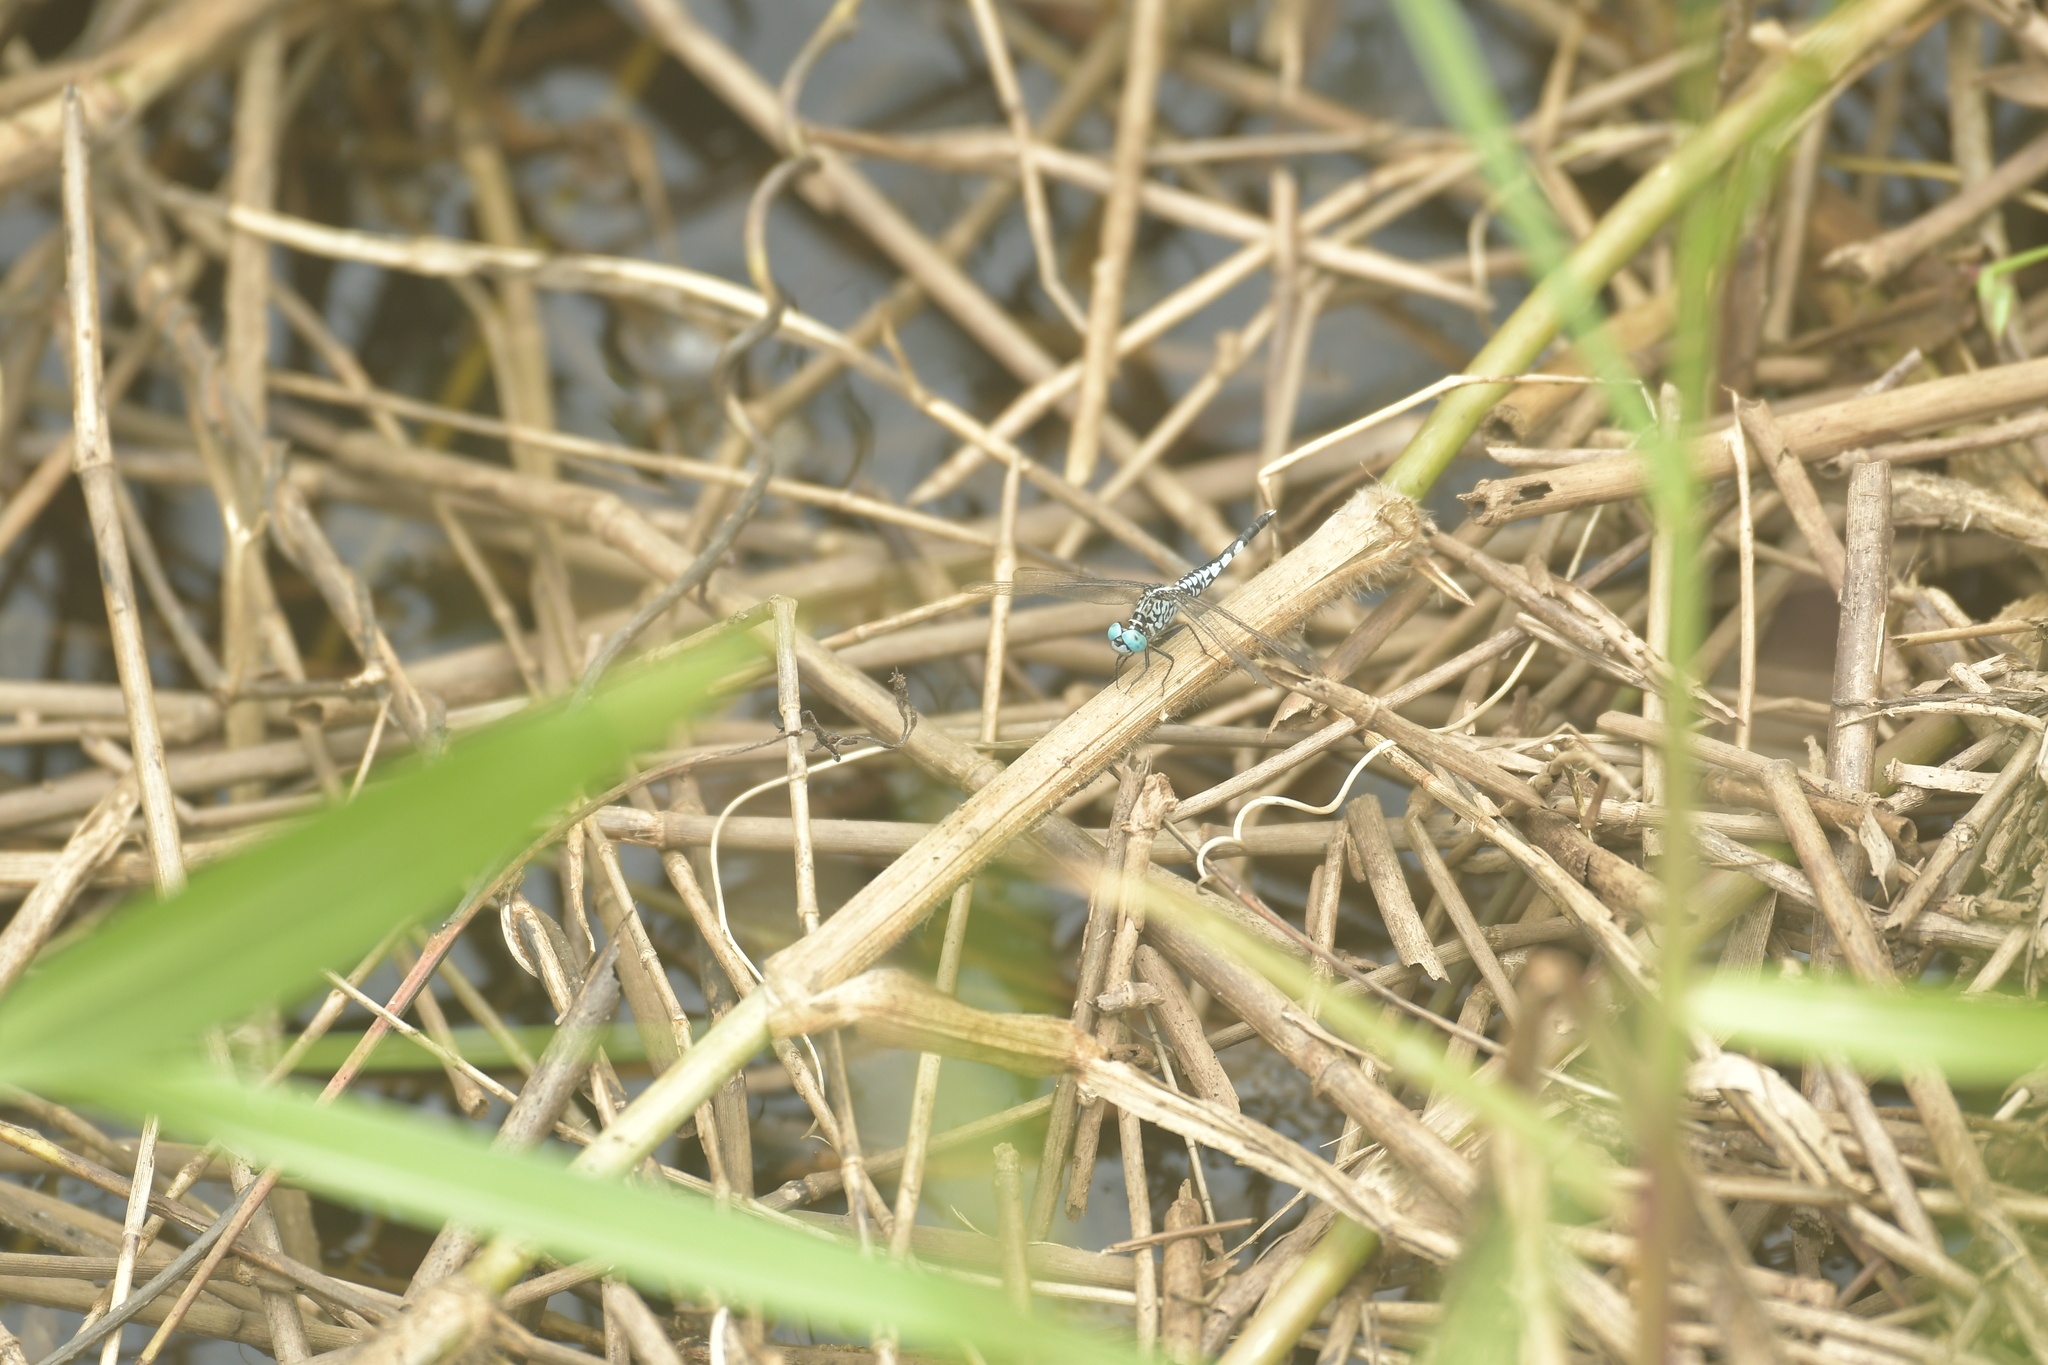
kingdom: Animalia
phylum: Arthropoda
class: Insecta
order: Odonata
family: Libellulidae
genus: Acisoma
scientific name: Acisoma panorpoides
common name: Asian pintail
